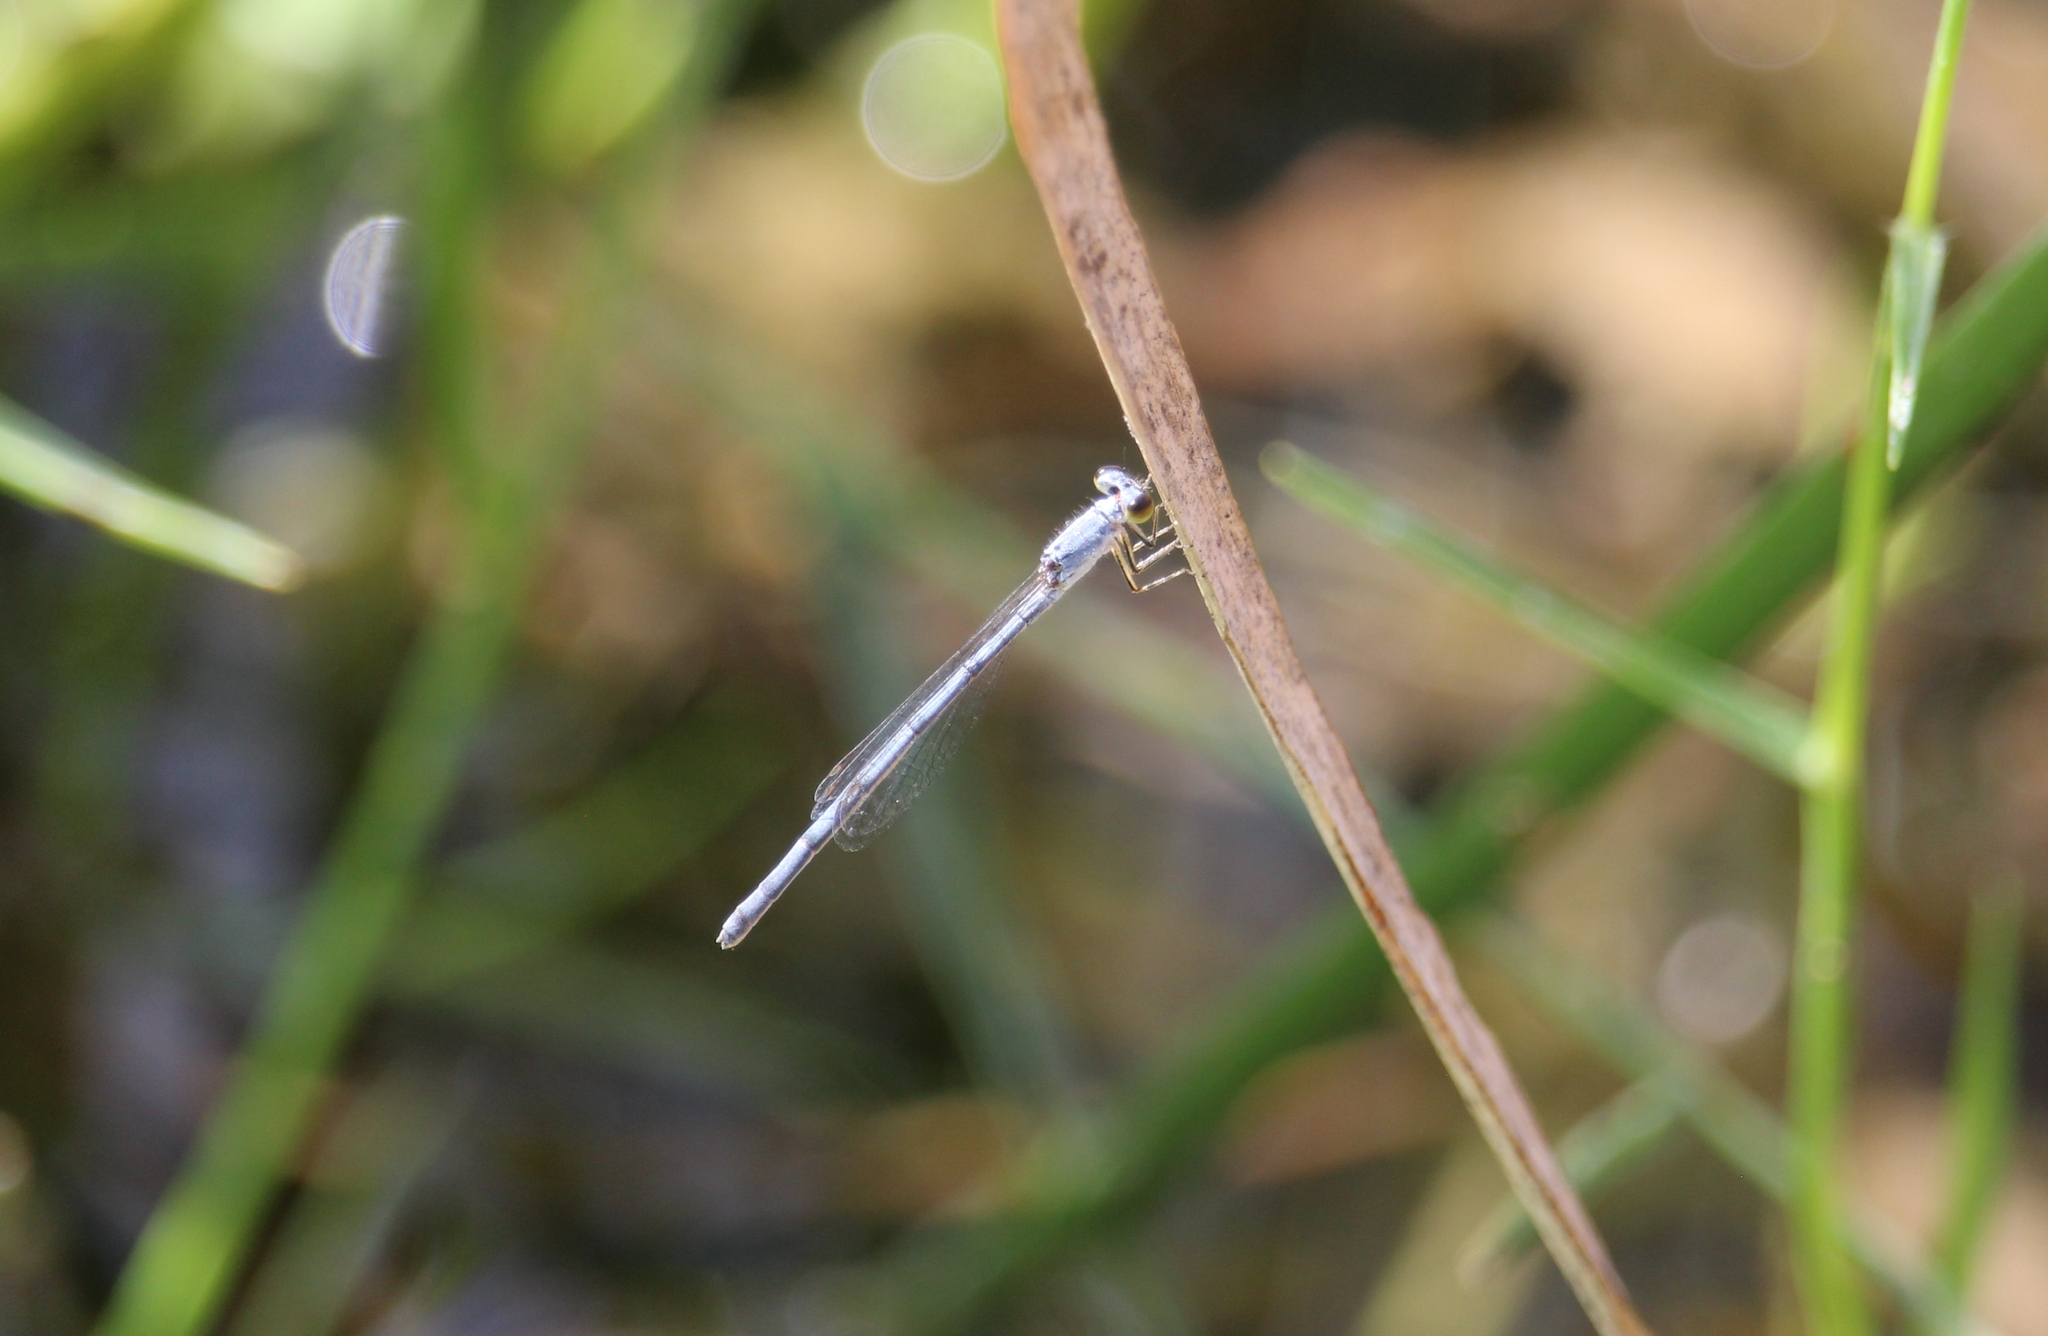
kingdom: Animalia
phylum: Arthropoda
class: Insecta
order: Odonata
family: Coenagrionidae
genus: Ischnura
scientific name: Ischnura hastata
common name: Citrine forktail
